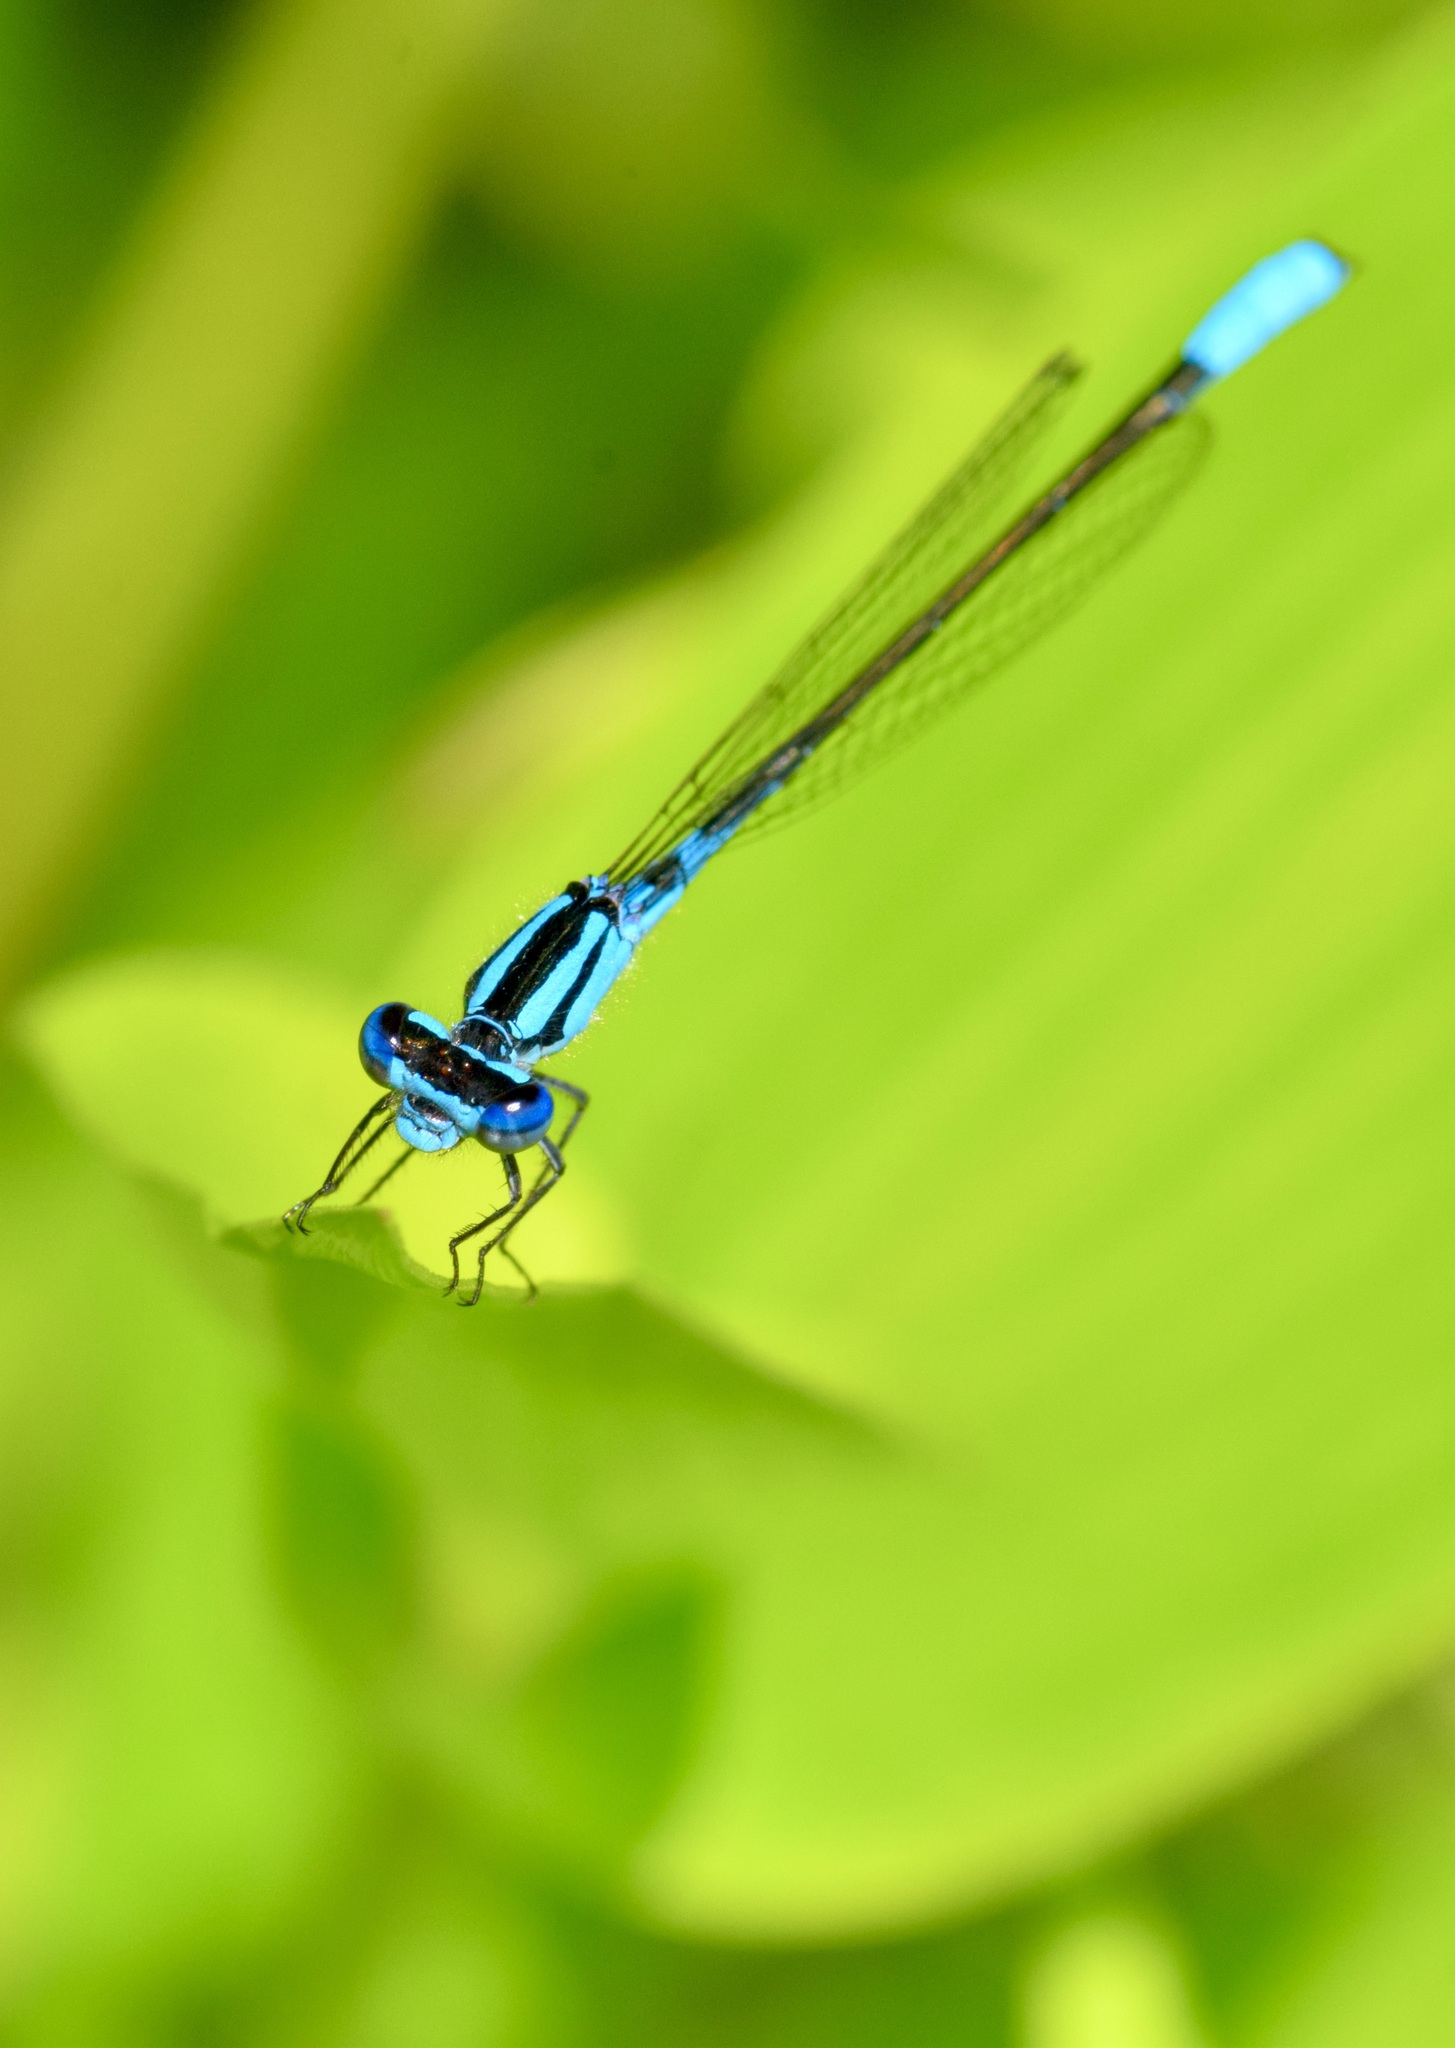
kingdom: Animalia
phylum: Arthropoda
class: Insecta
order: Odonata
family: Coenagrionidae
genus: Enallagma
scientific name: Enallagma aspersum
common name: Azure bluet
